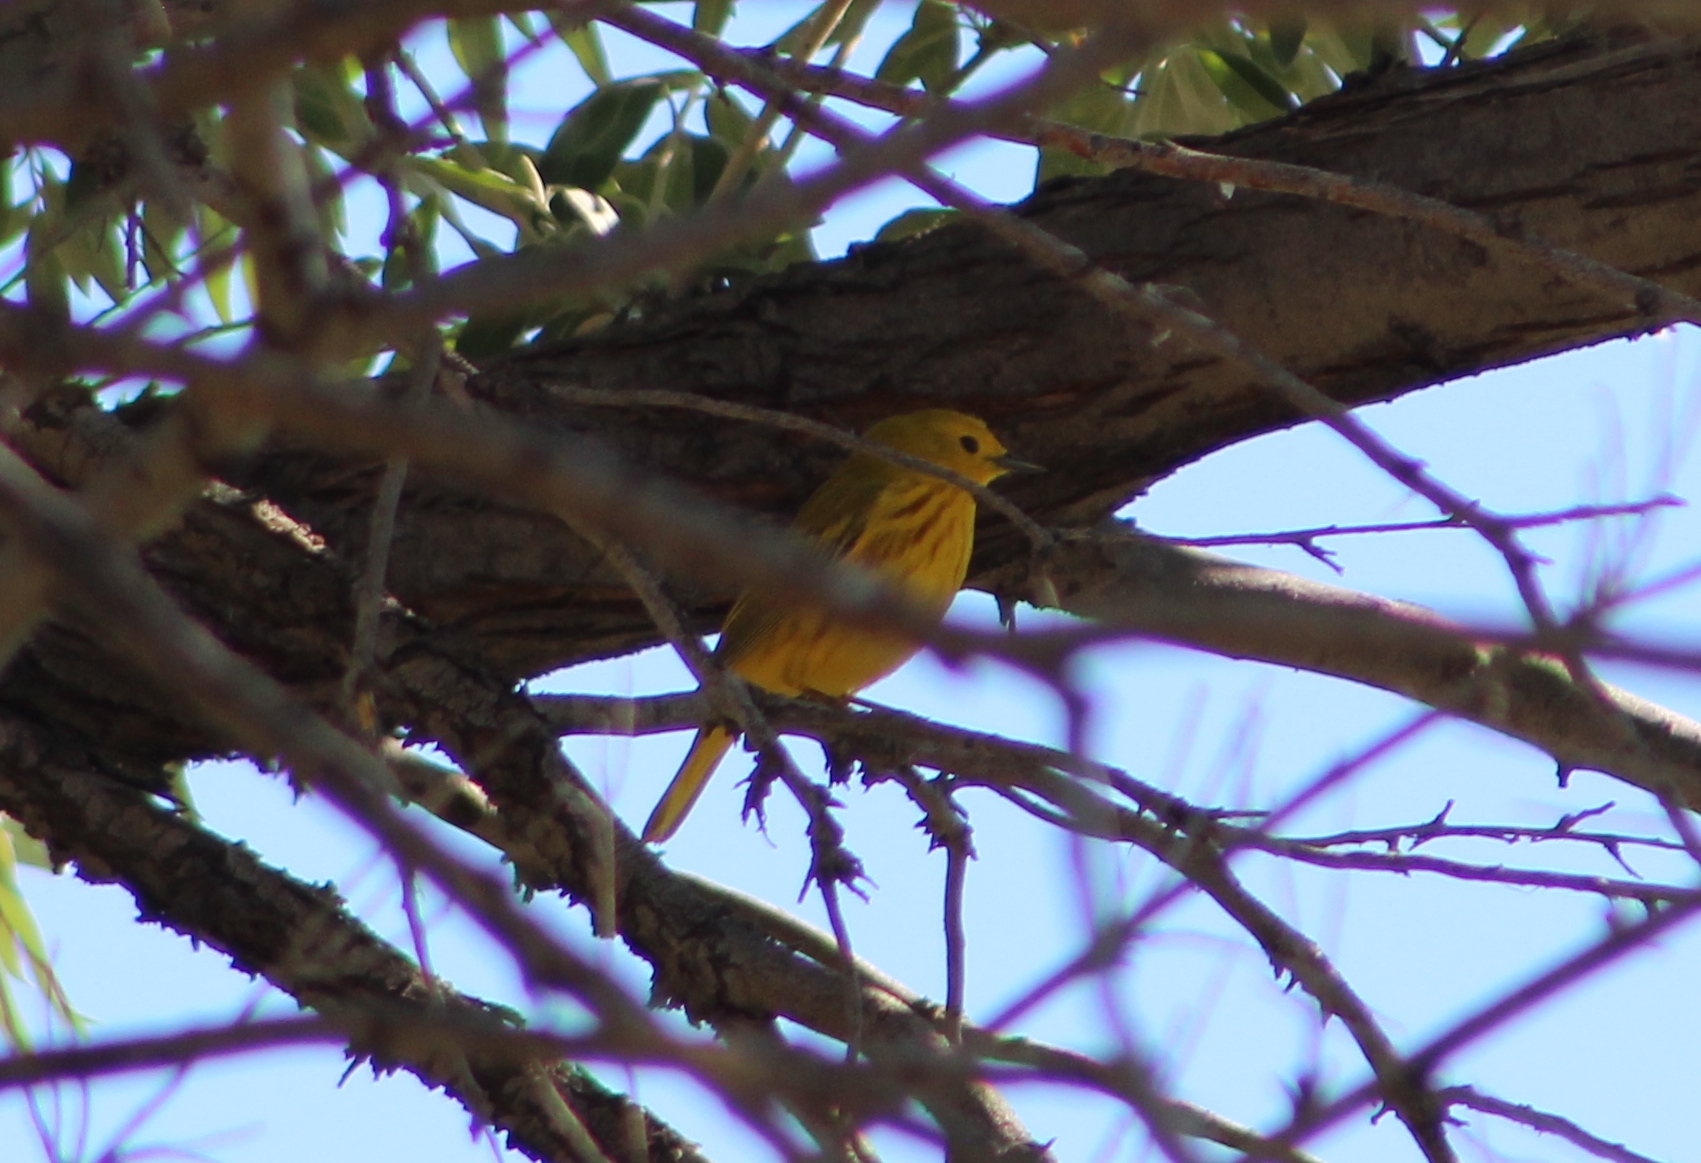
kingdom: Animalia
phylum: Chordata
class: Aves
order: Passeriformes
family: Parulidae
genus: Setophaga
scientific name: Setophaga petechia
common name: Yellow warbler
